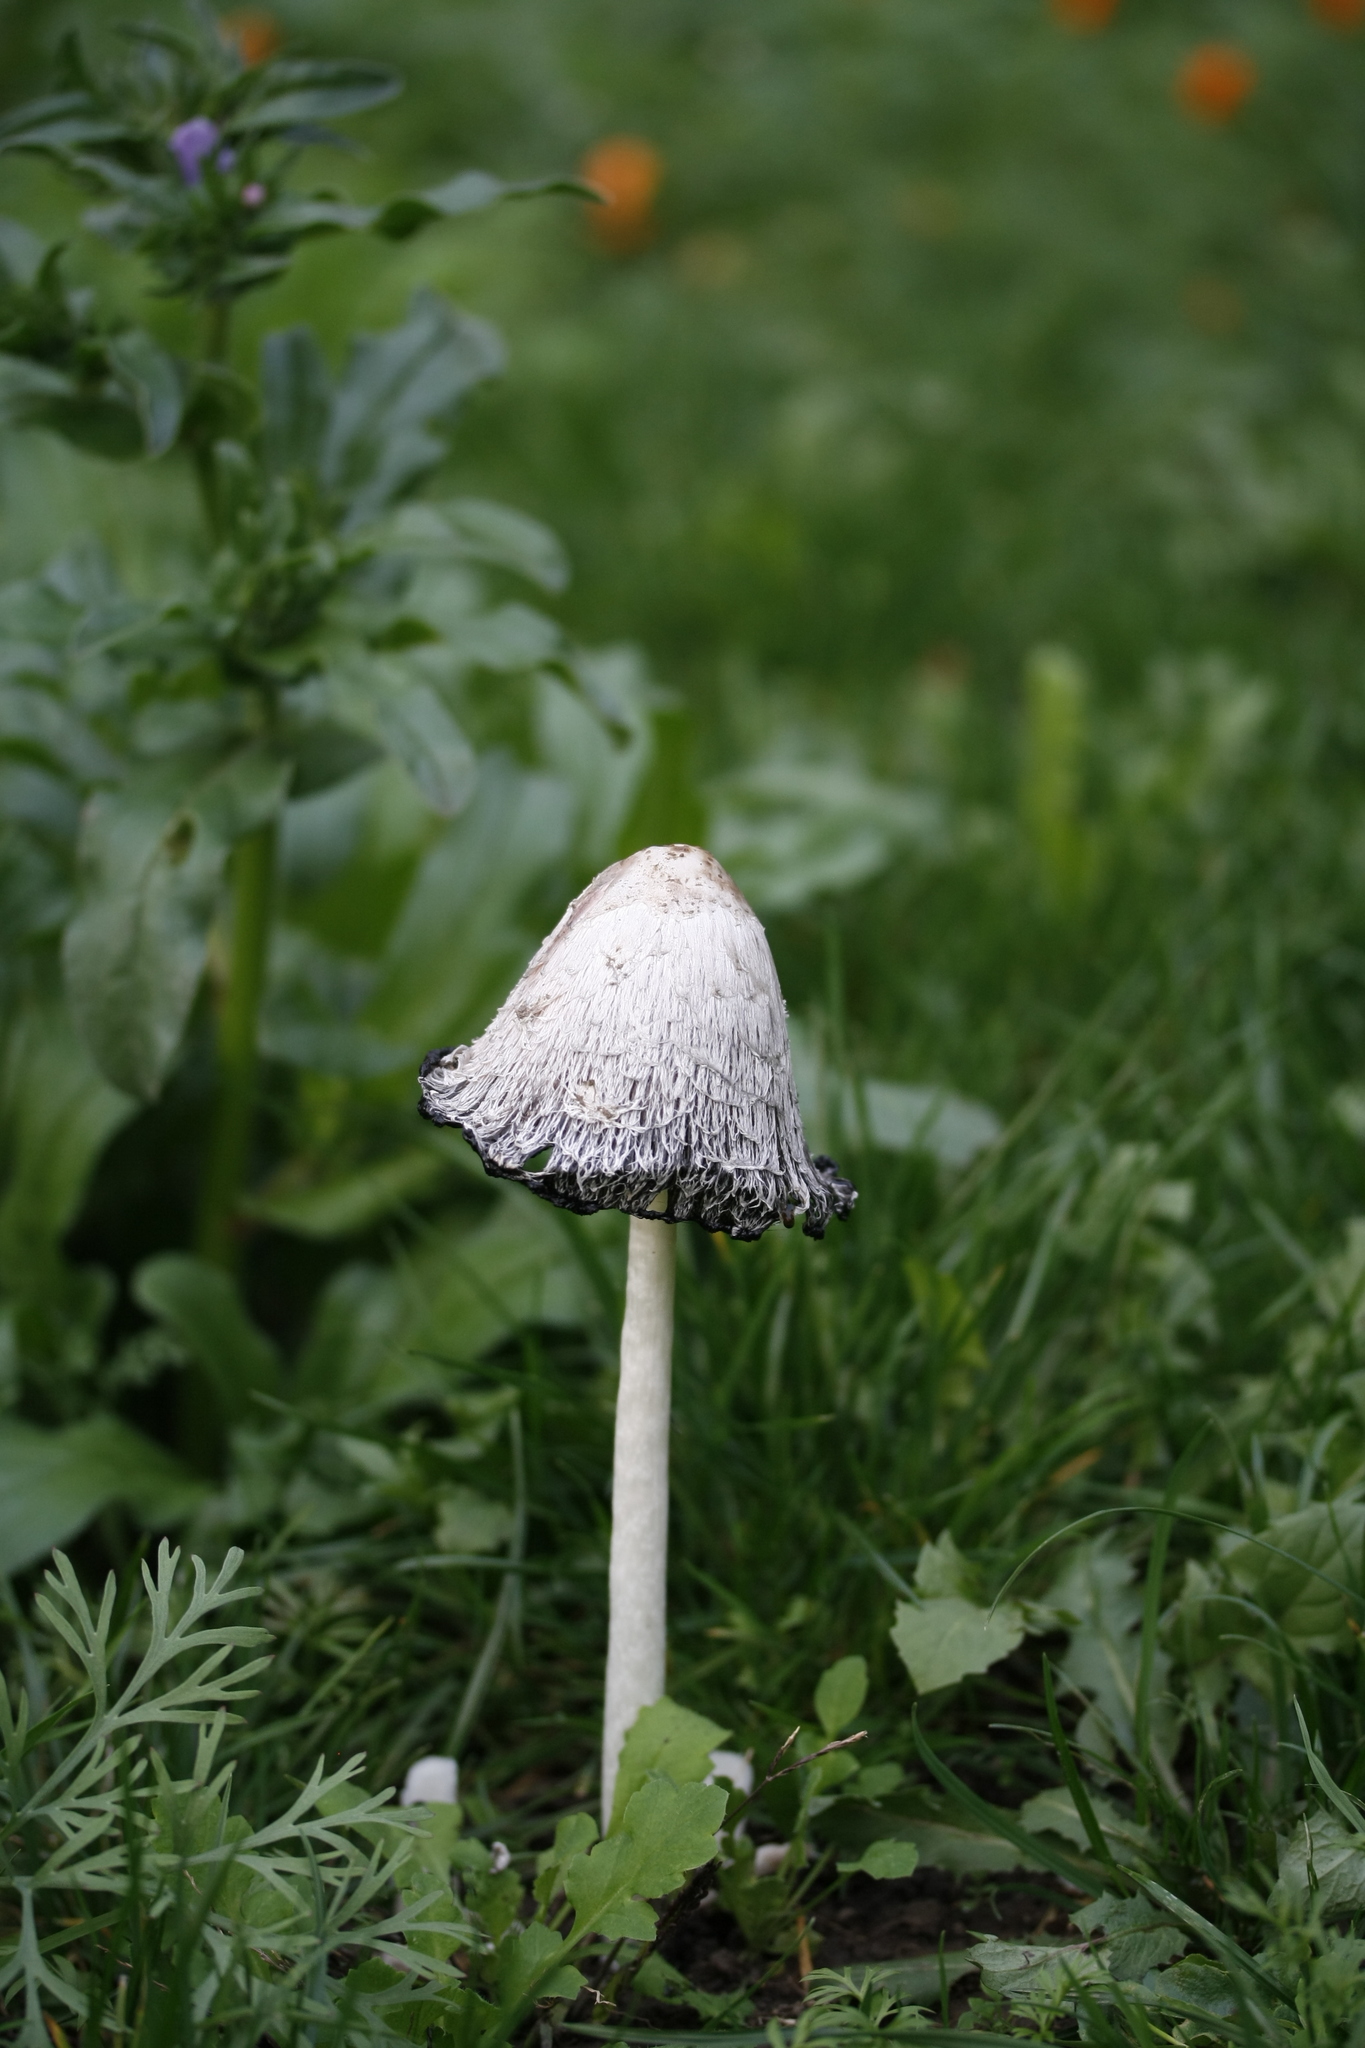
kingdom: Fungi
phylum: Basidiomycota
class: Agaricomycetes
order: Agaricales
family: Agaricaceae
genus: Coprinus
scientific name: Coprinus comatus
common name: Lawyer's wig
